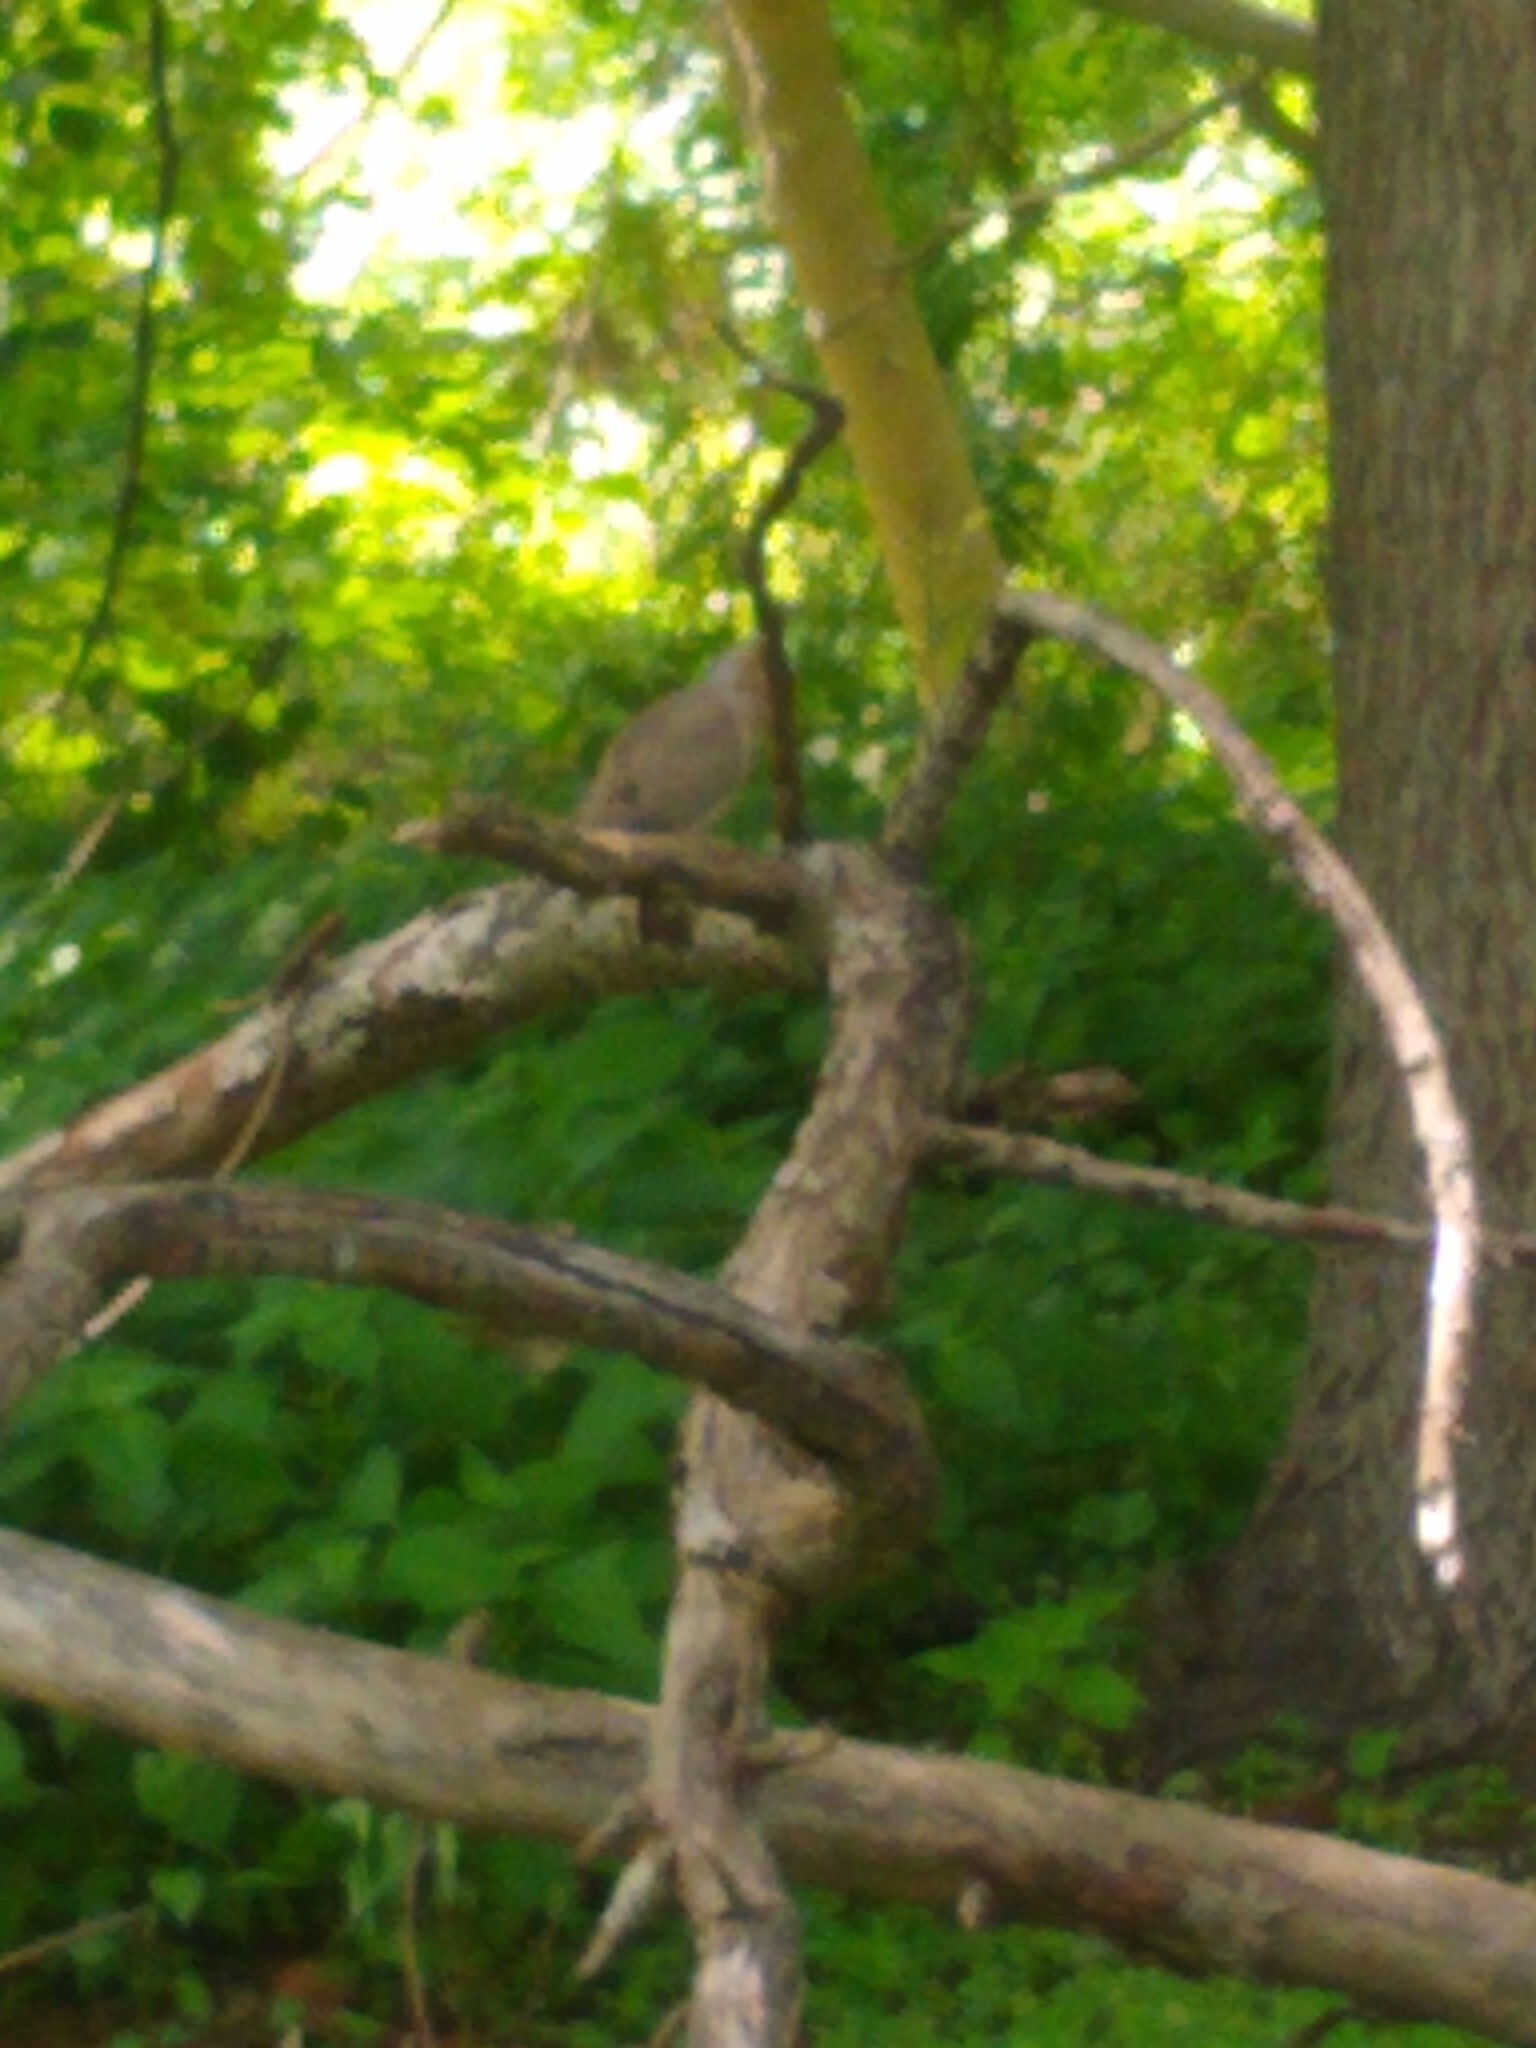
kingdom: Animalia
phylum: Chordata
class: Aves
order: Columbiformes
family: Columbidae
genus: Zenaida
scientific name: Zenaida macroura
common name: Mourning dove
